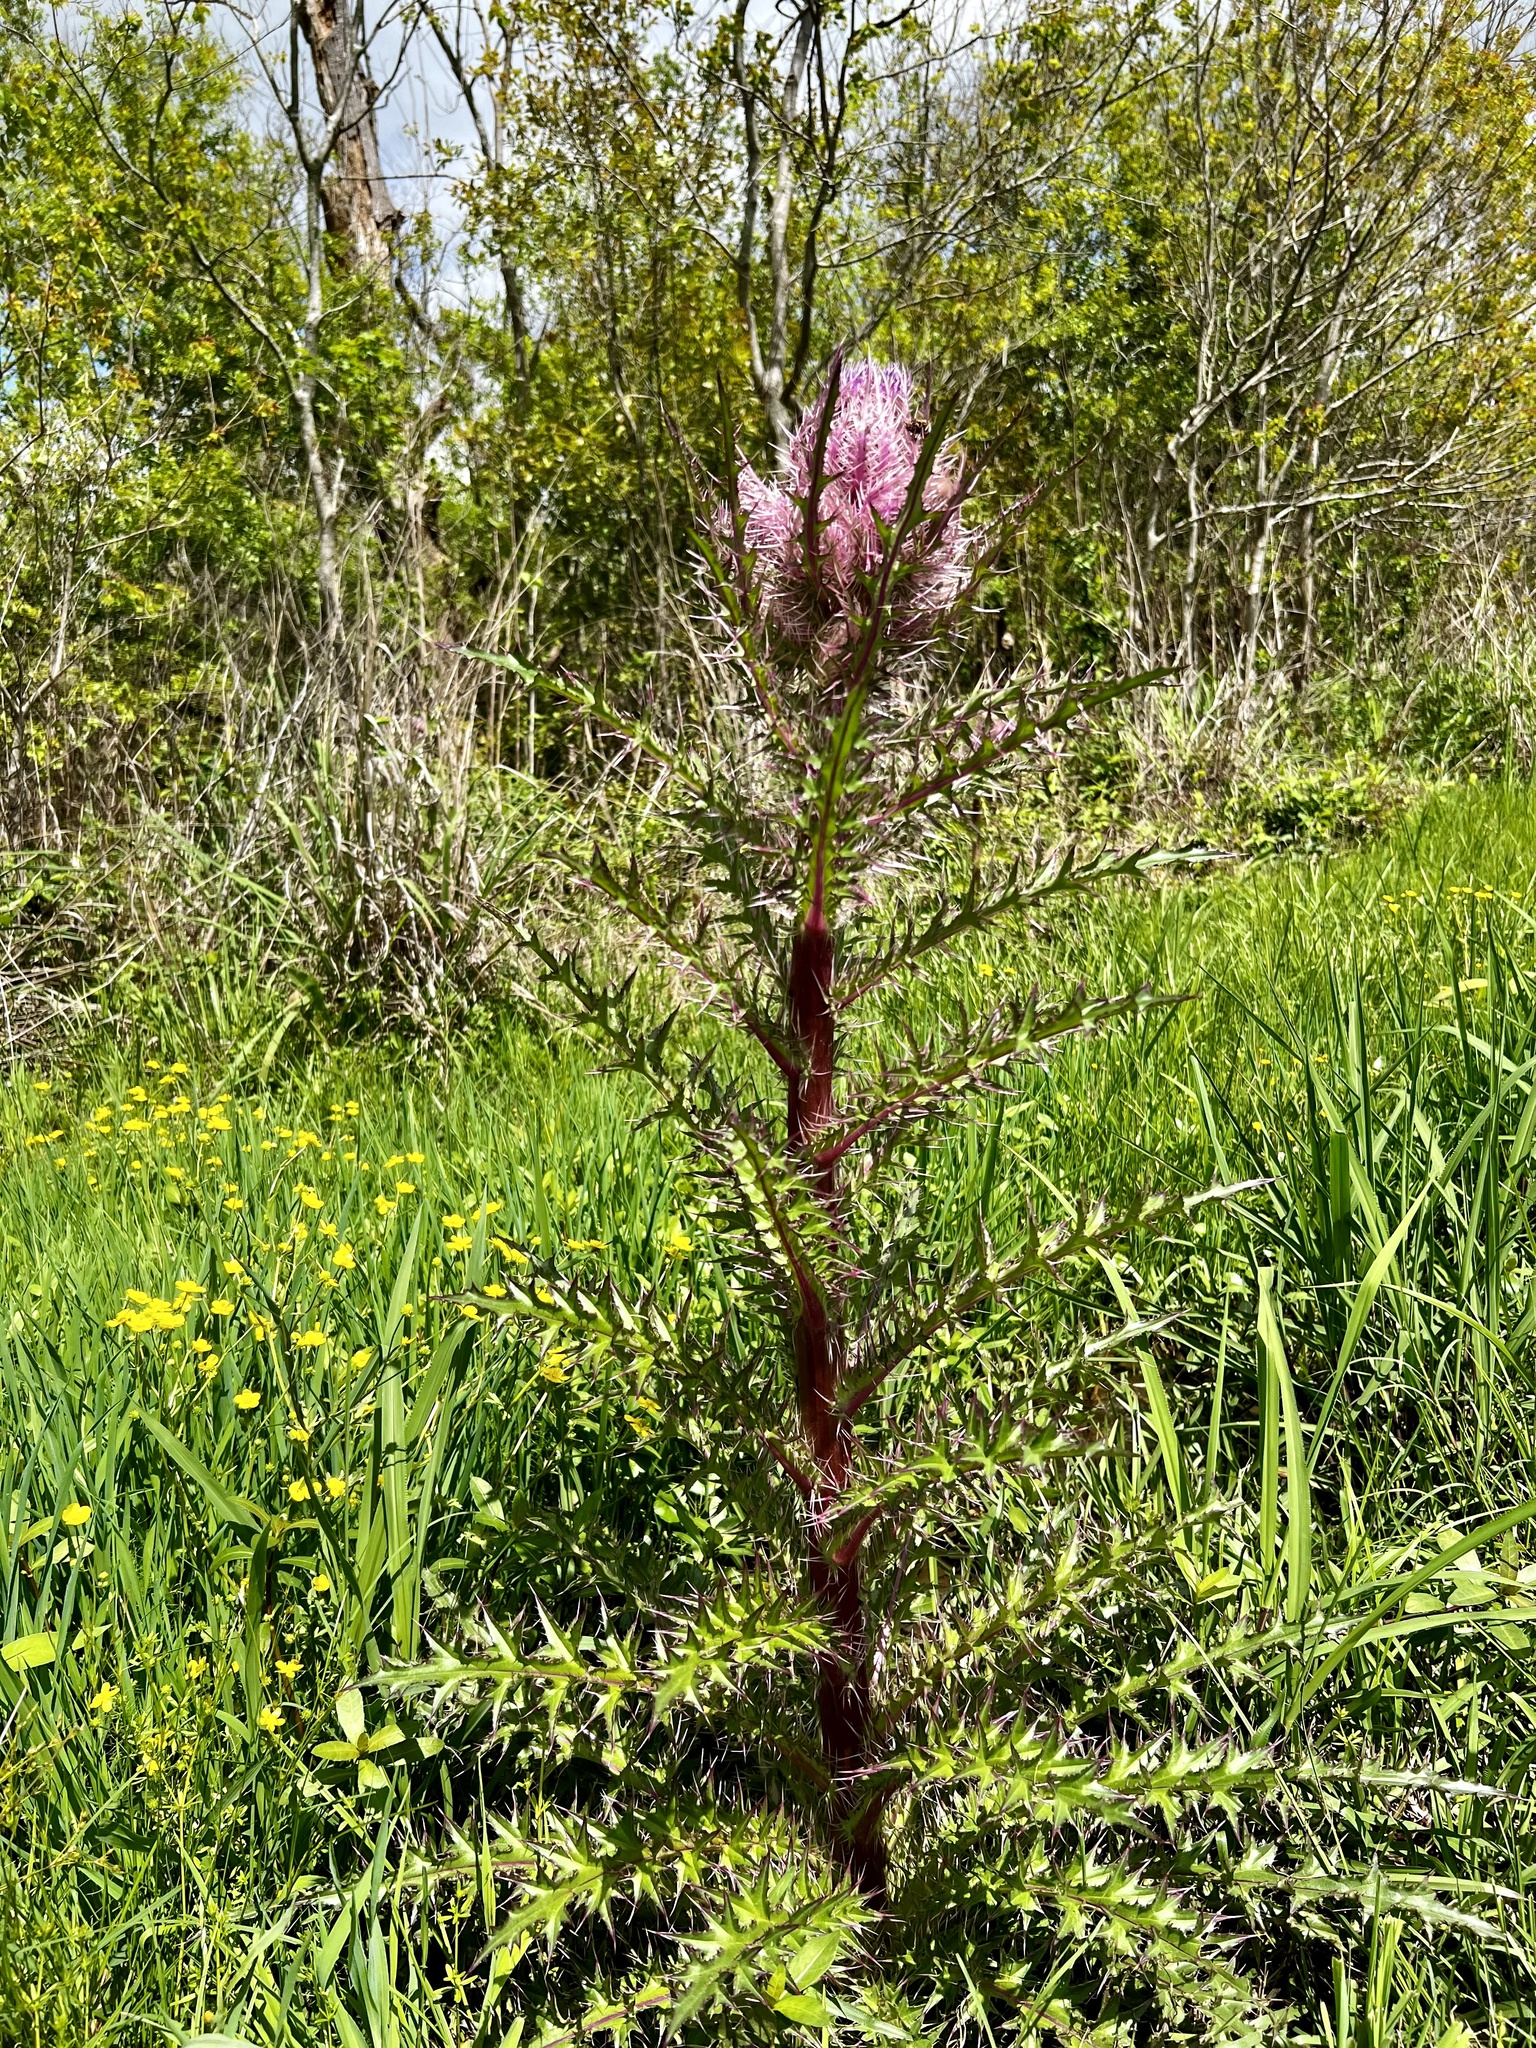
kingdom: Plantae
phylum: Tracheophyta
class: Magnoliopsida
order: Asterales
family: Asteraceae
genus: Cirsium
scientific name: Cirsium horridulum
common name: Bristly thistle
